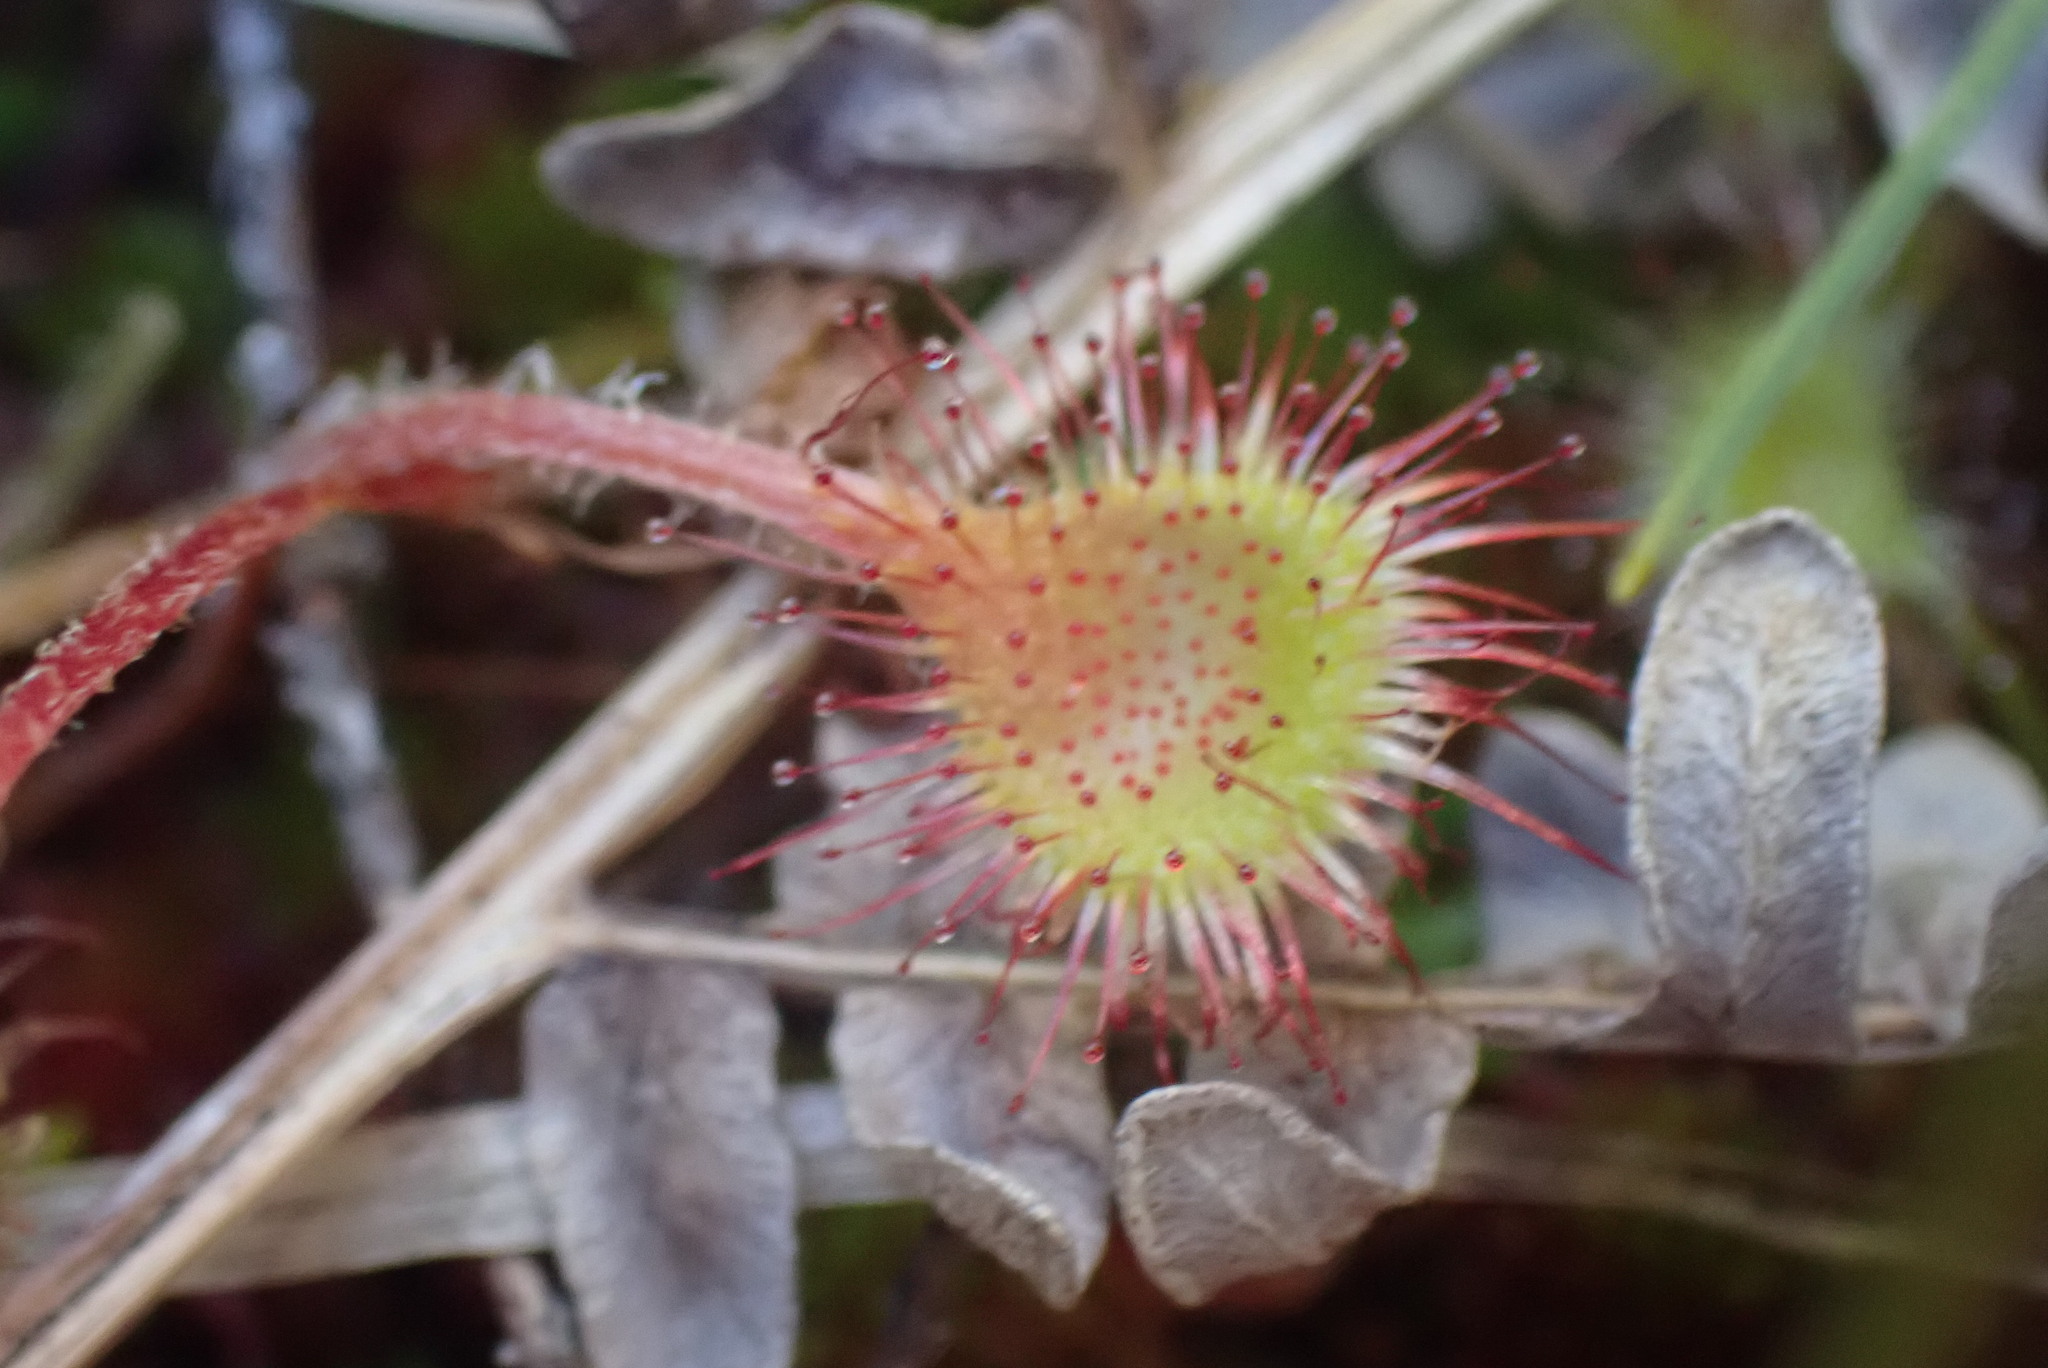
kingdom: Plantae
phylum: Tracheophyta
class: Magnoliopsida
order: Caryophyllales
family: Droseraceae
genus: Drosera
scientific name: Drosera rotundifolia
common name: Round-leaved sundew
